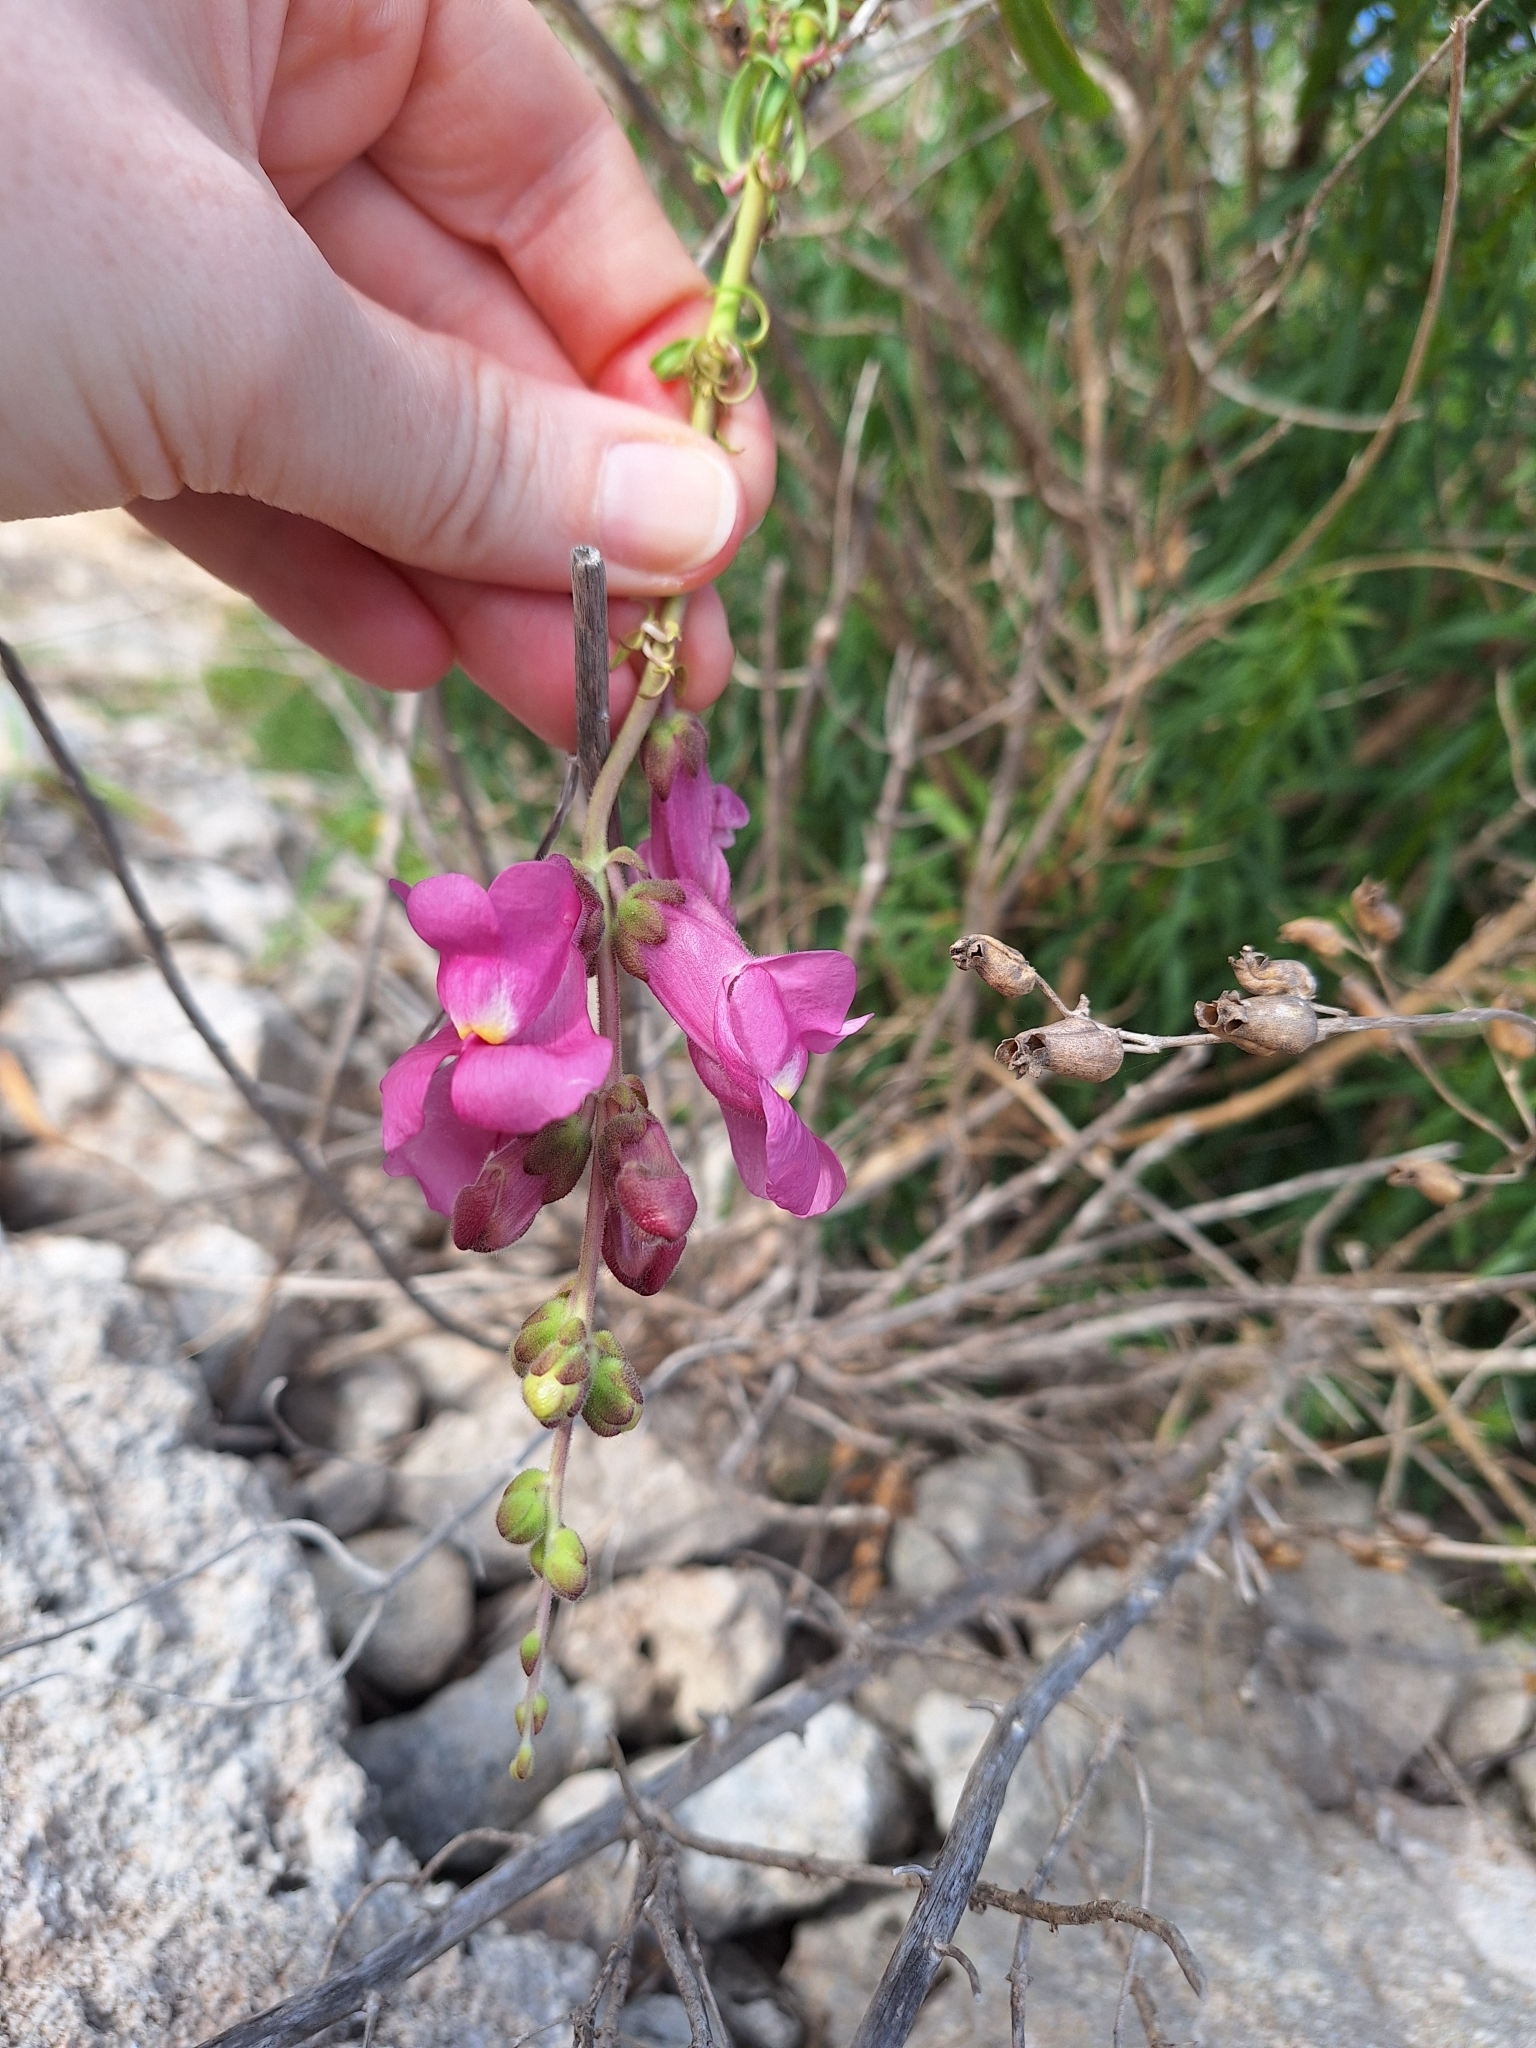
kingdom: Plantae
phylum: Tracheophyta
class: Magnoliopsida
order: Lamiales
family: Plantaginaceae
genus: Antirrhinum
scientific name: Antirrhinum tortuosum
